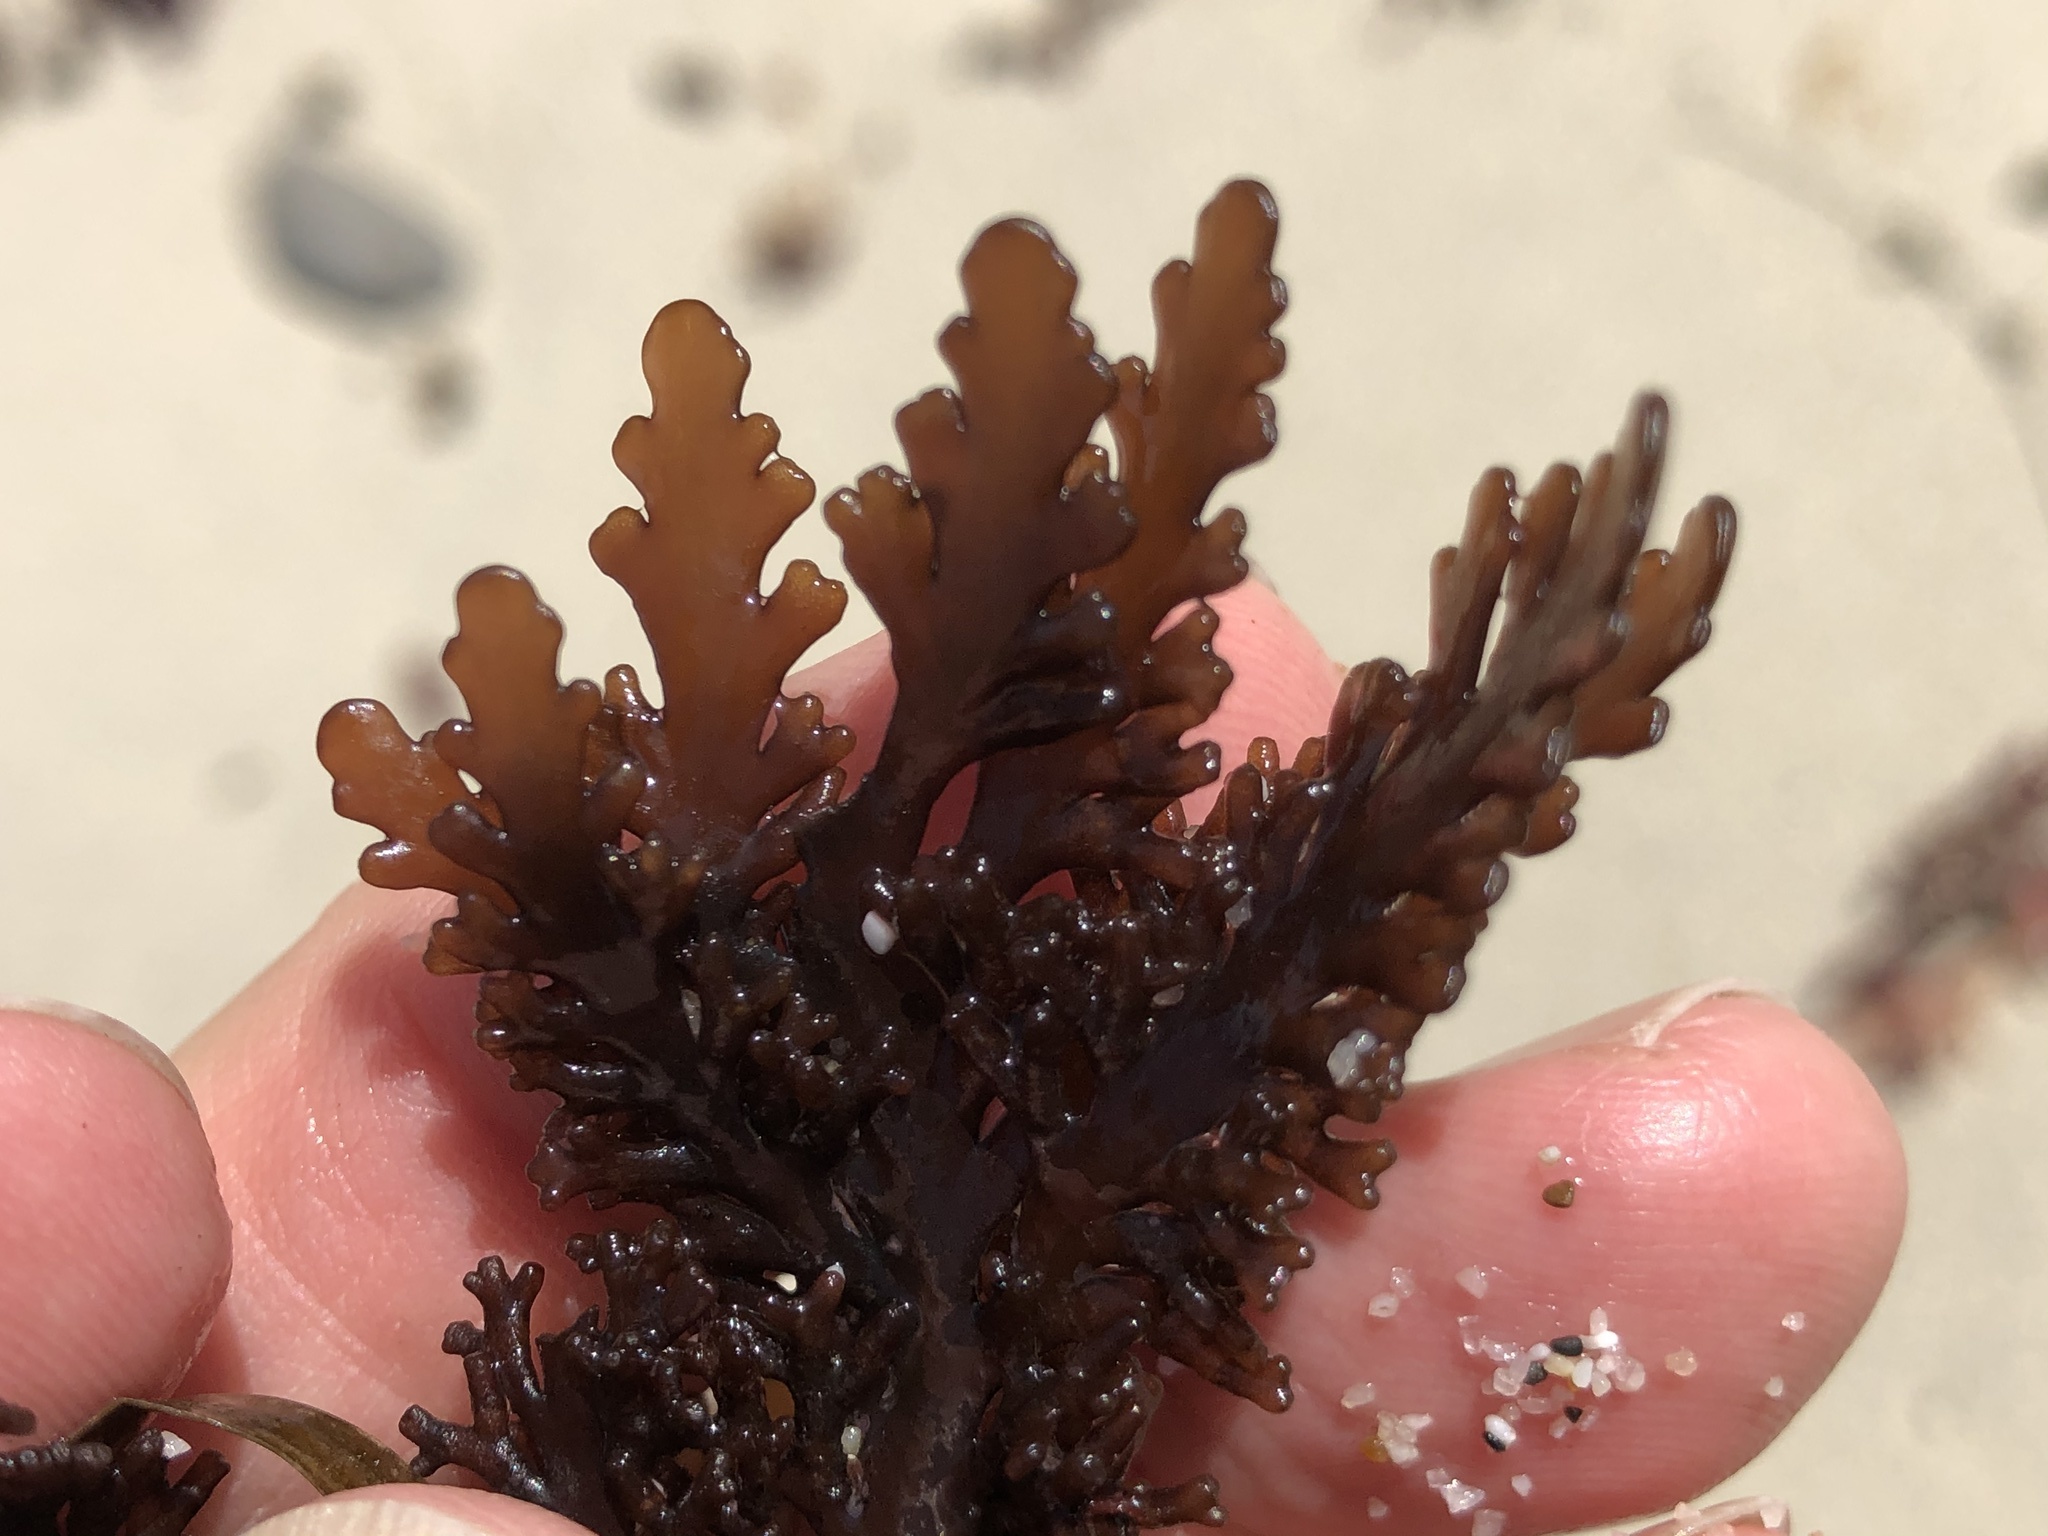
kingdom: Plantae
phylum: Rhodophyta
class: Florideophyceae
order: Ceramiales
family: Rhodomelaceae
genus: Osmundea
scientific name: Osmundea spectabilis
